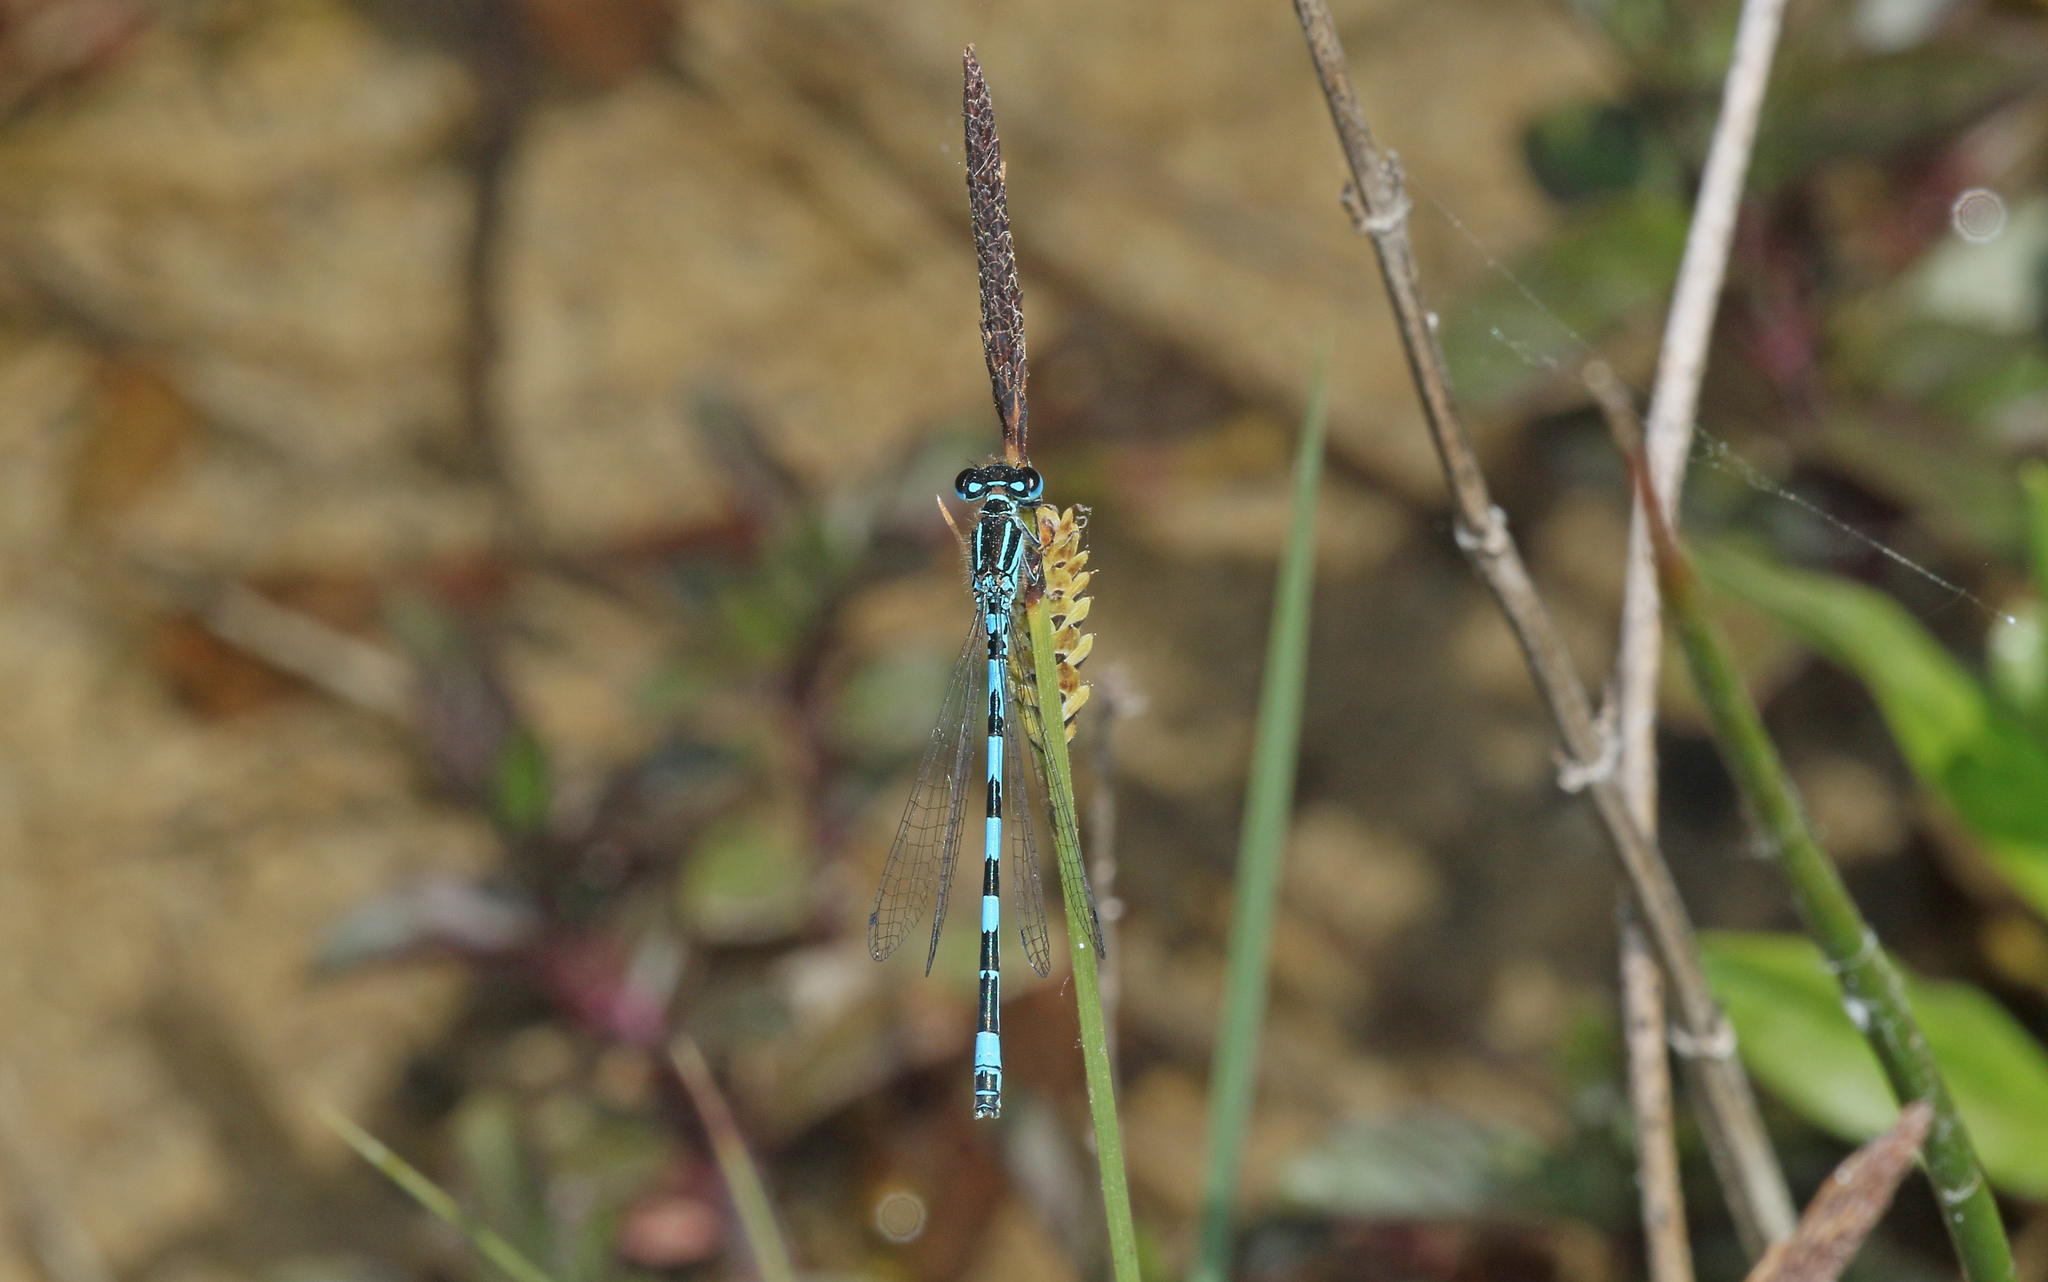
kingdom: Animalia
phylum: Arthropoda
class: Insecta
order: Odonata
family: Coenagrionidae
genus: Coenagrion
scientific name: Coenagrion mercuriale
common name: Southern damselfly
